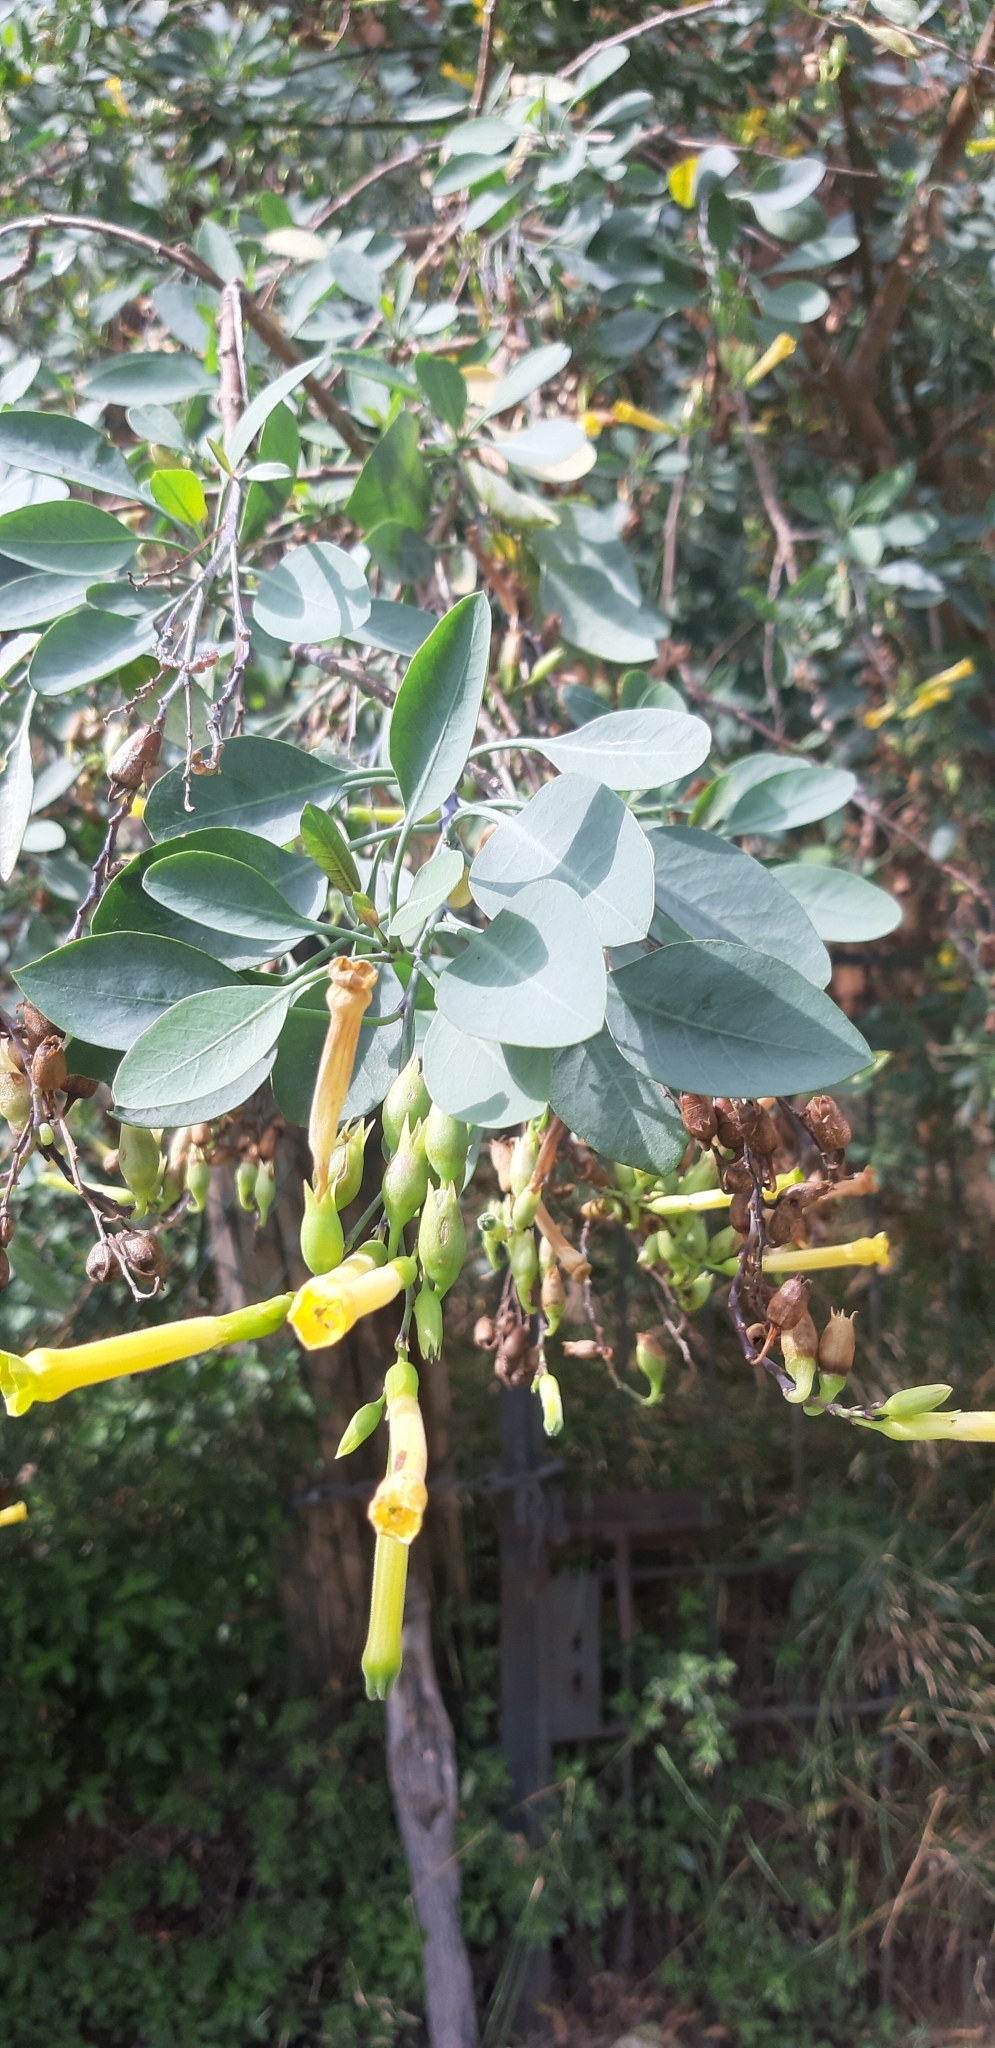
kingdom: Plantae
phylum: Tracheophyta
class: Magnoliopsida
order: Solanales
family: Solanaceae
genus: Nicotiana
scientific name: Nicotiana glauca
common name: Tree tobacco
